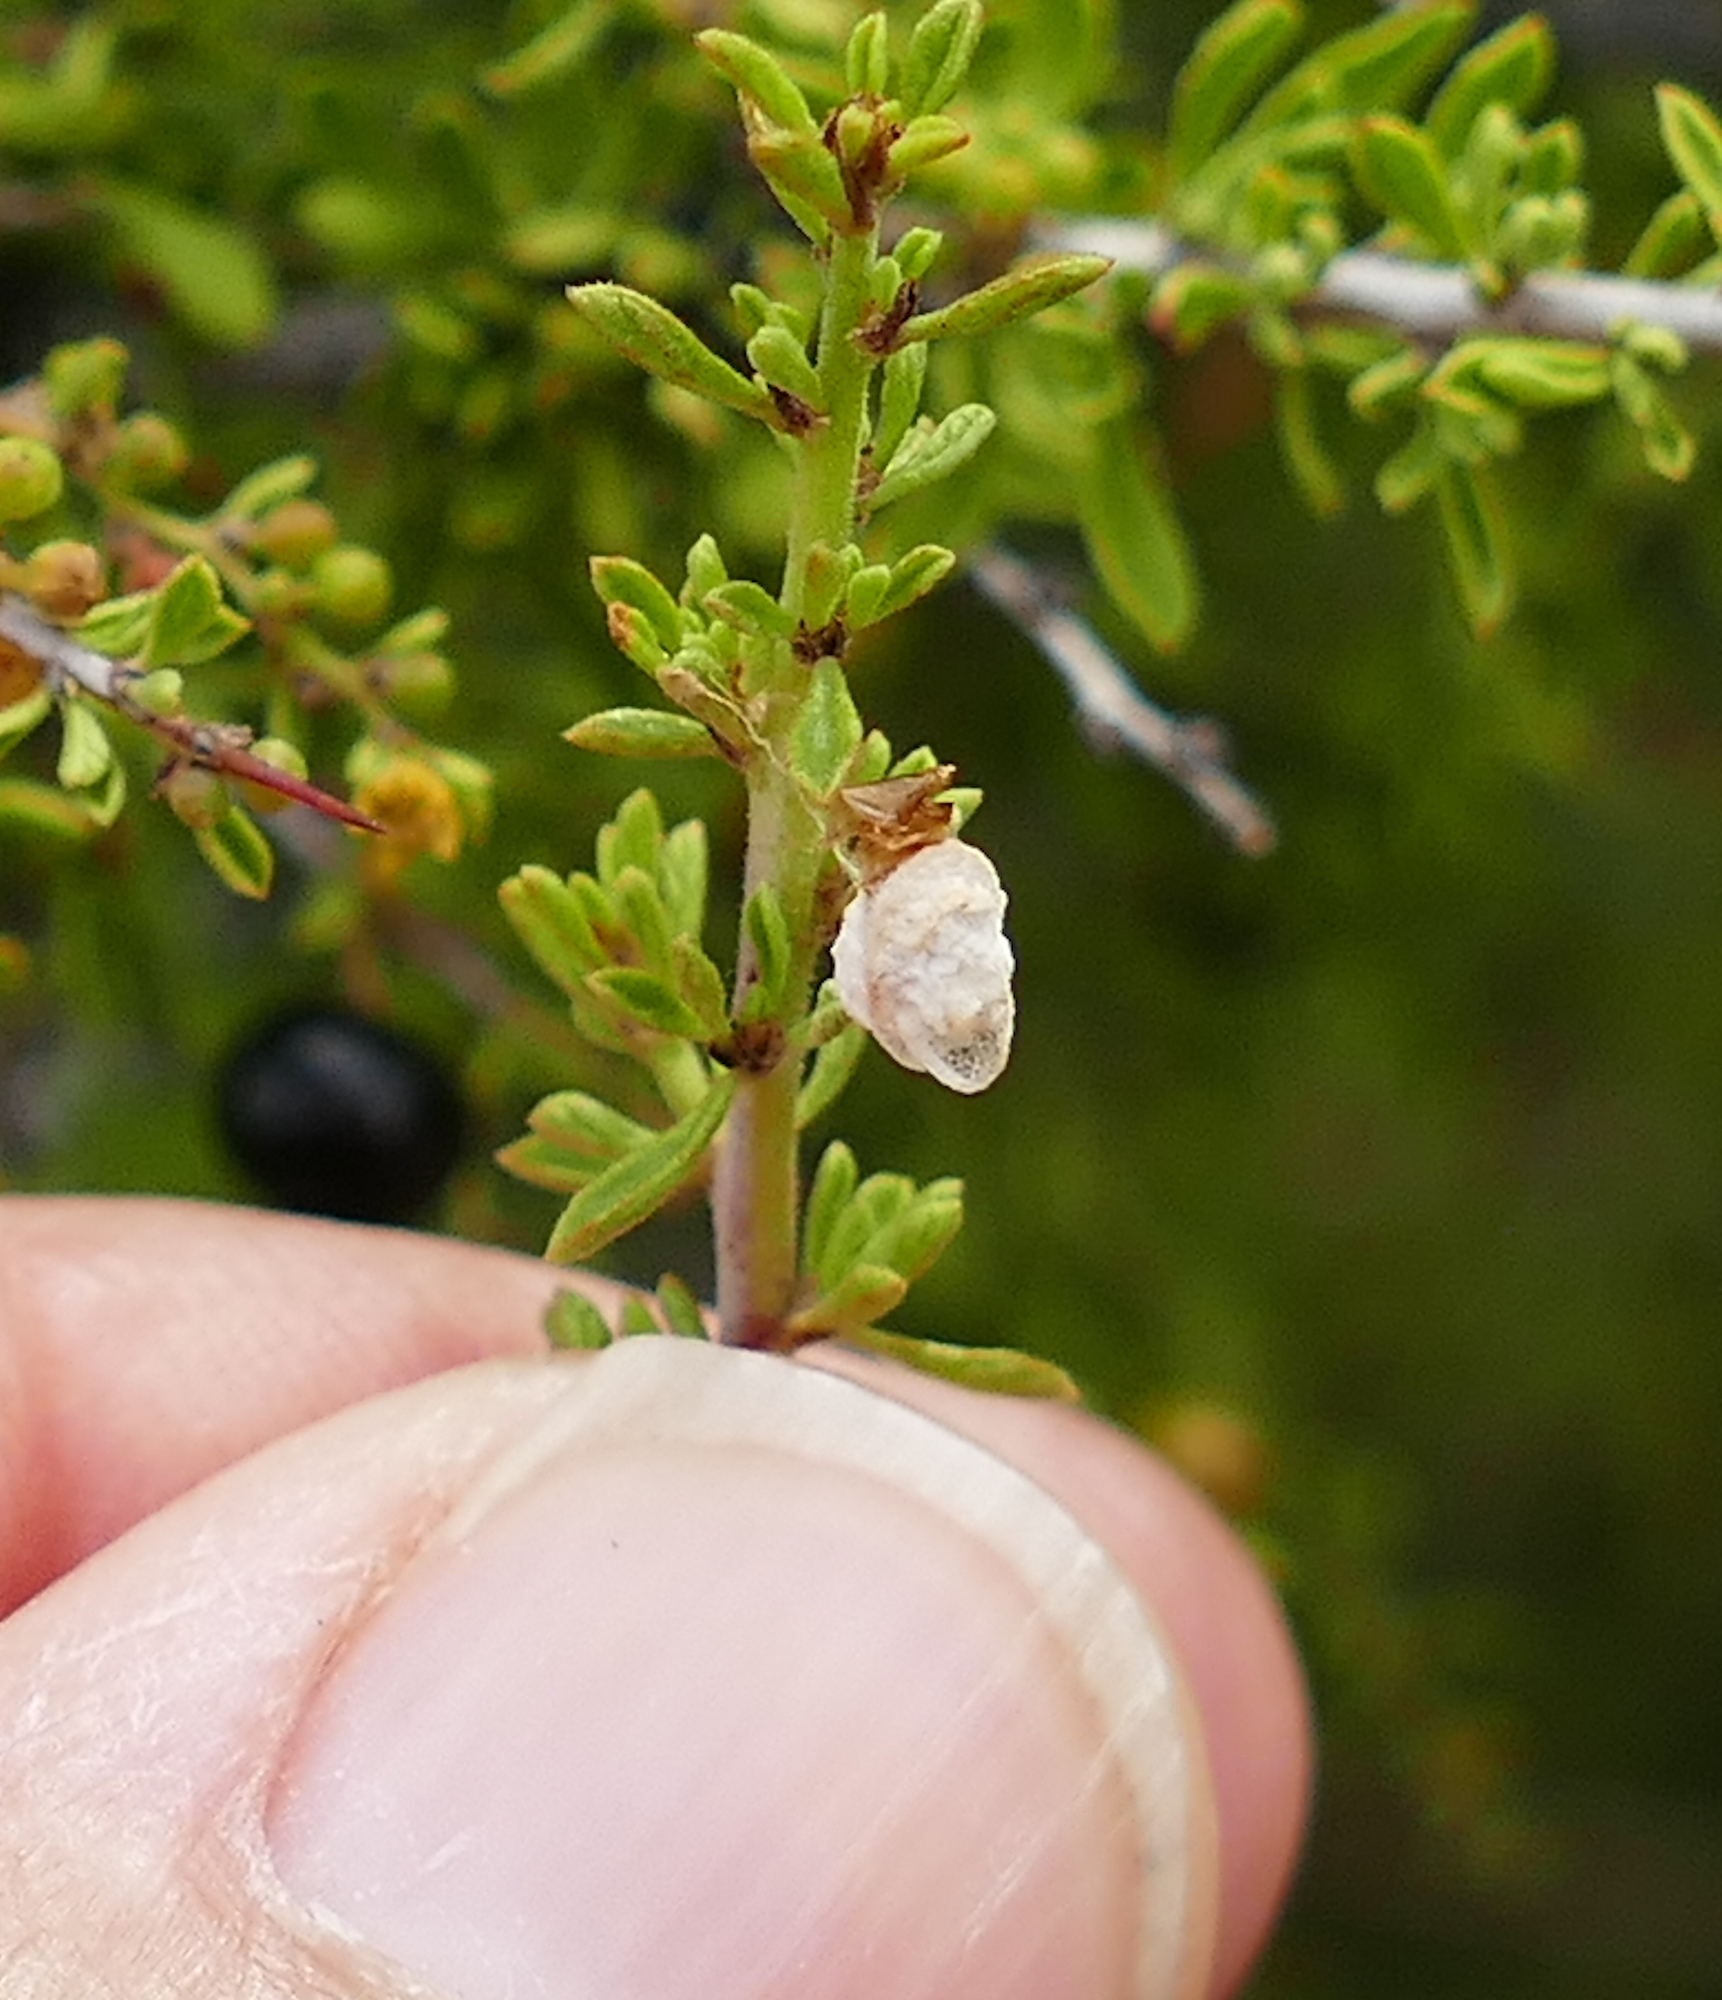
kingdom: Animalia
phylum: Arthropoda
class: Insecta
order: Lepidoptera
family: Epipyropidae
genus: Fulgoraecia
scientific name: Fulgoraecia exigua
